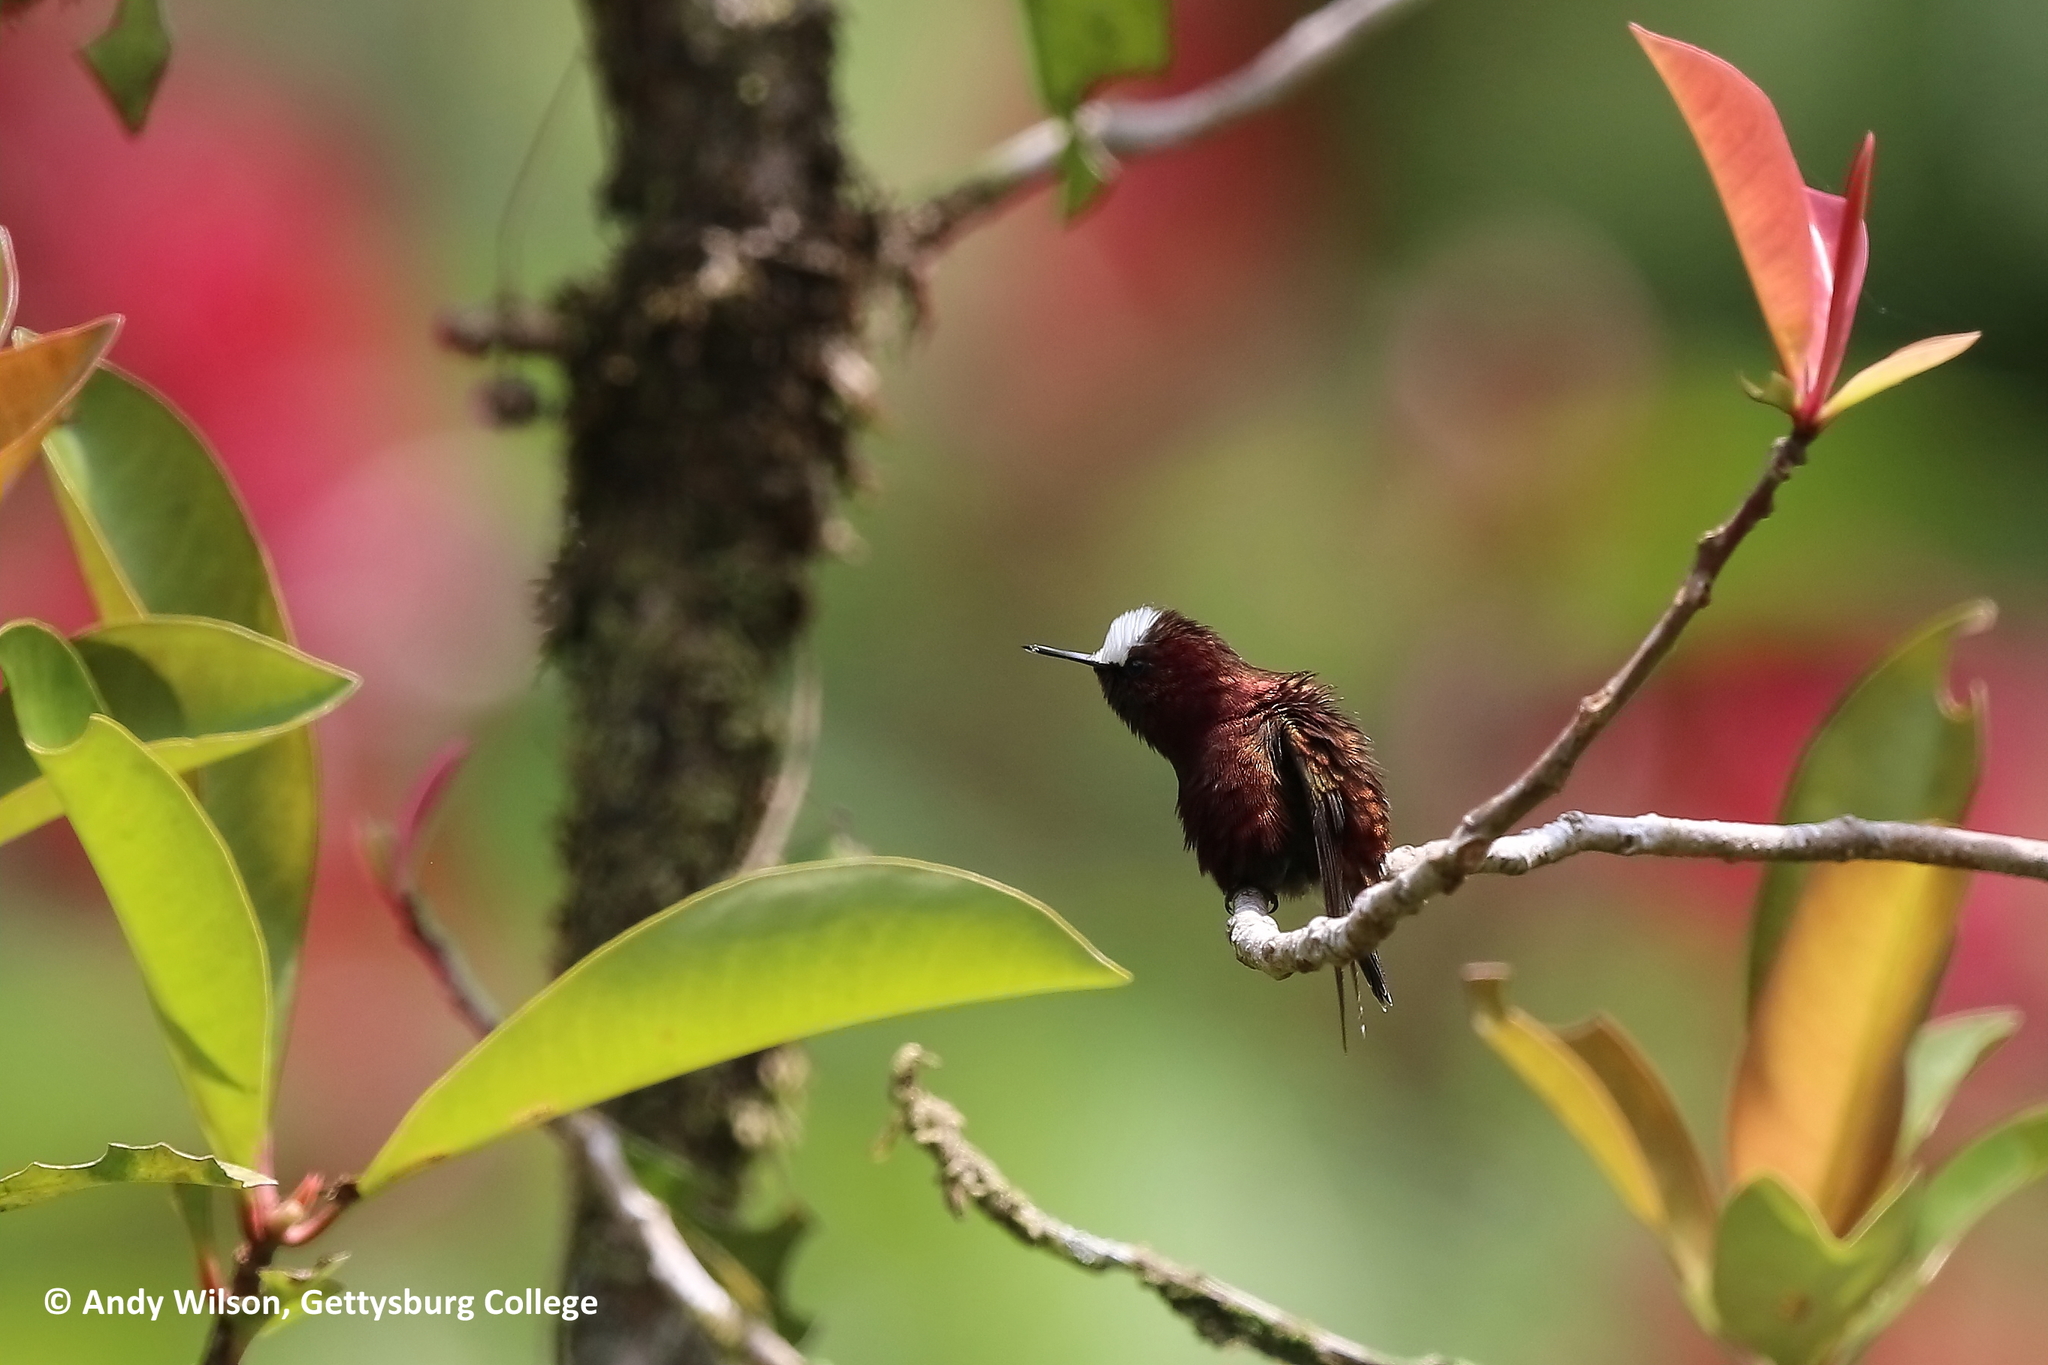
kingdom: Animalia
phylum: Chordata
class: Aves
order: Apodiformes
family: Trochilidae
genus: Microchera
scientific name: Microchera albocoronata
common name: Snowcap
